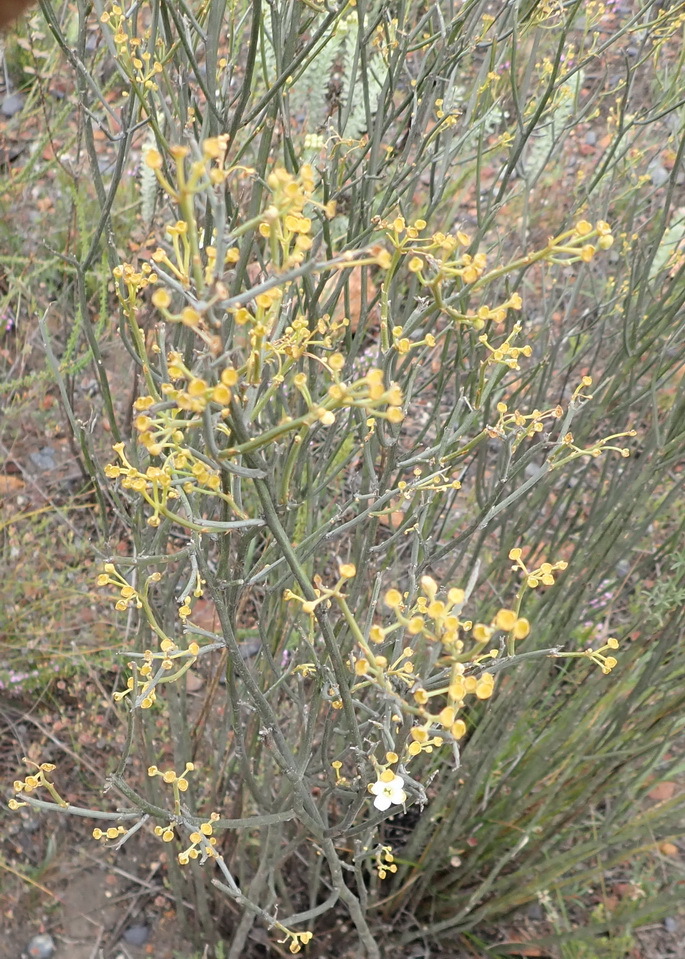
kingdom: Plantae
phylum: Tracheophyta
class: Magnoliopsida
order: Solanales
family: Montiniaceae
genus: Montinia
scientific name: Montinia caryophyllacea
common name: Wild clove-bush
